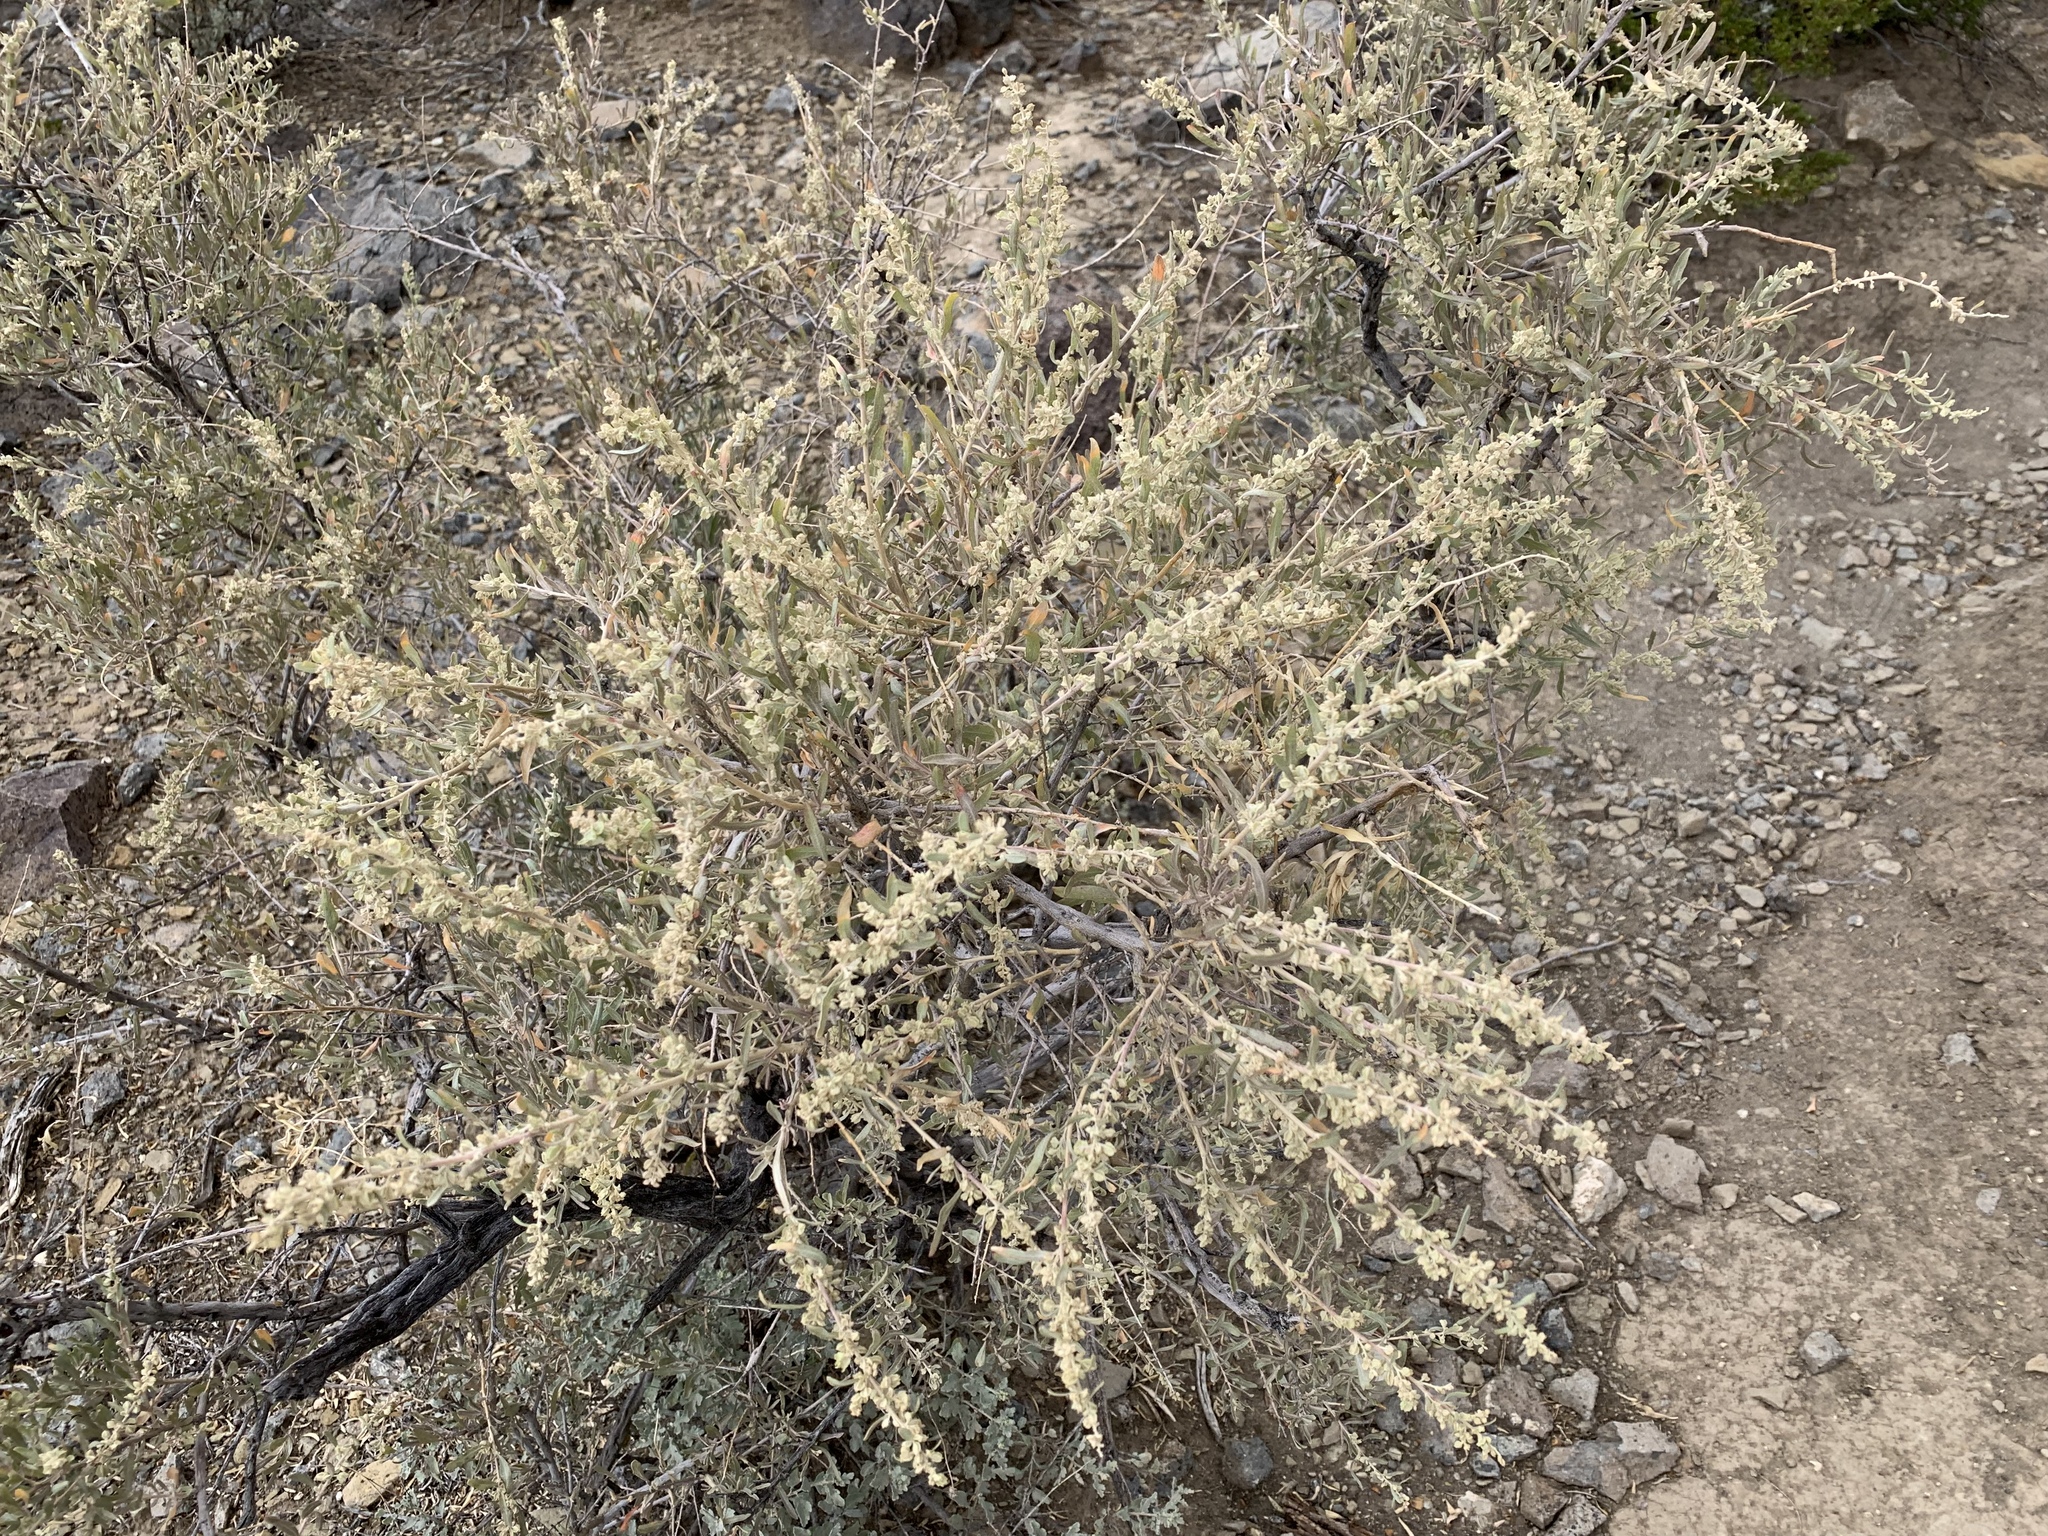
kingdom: Plantae
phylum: Tracheophyta
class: Magnoliopsida
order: Caryophyllales
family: Amaranthaceae
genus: Atriplex
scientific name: Atriplex canescens
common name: Four-wing saltbush
